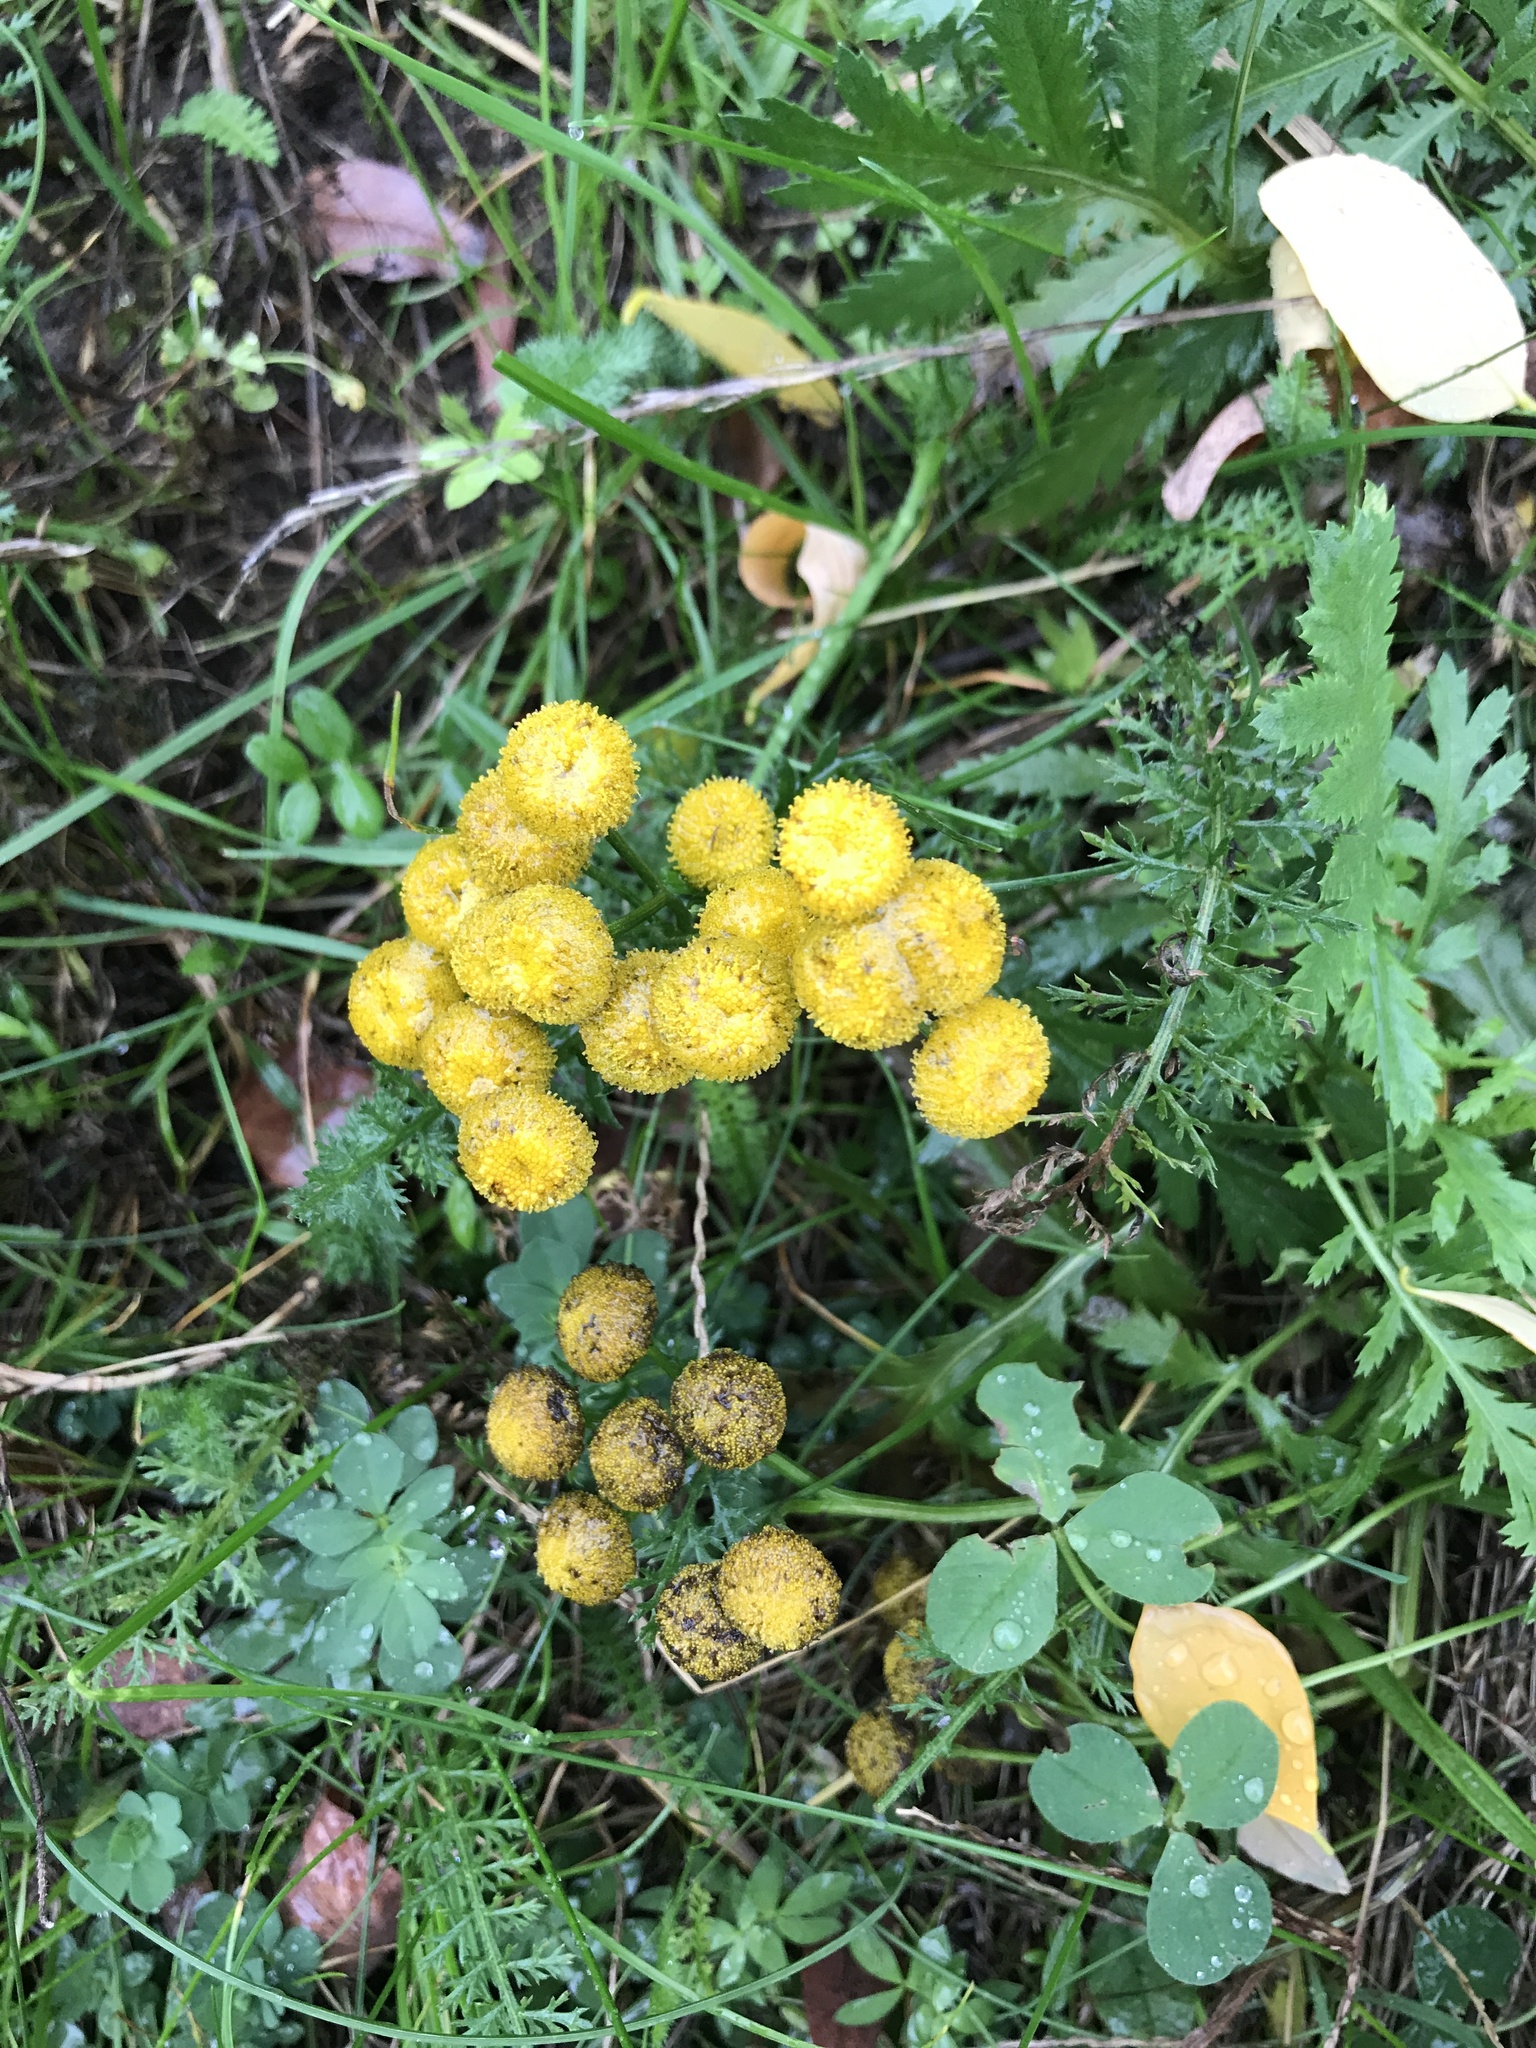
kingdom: Plantae
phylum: Tracheophyta
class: Magnoliopsida
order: Asterales
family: Asteraceae
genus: Tanacetum
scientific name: Tanacetum vulgare
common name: Common tansy
